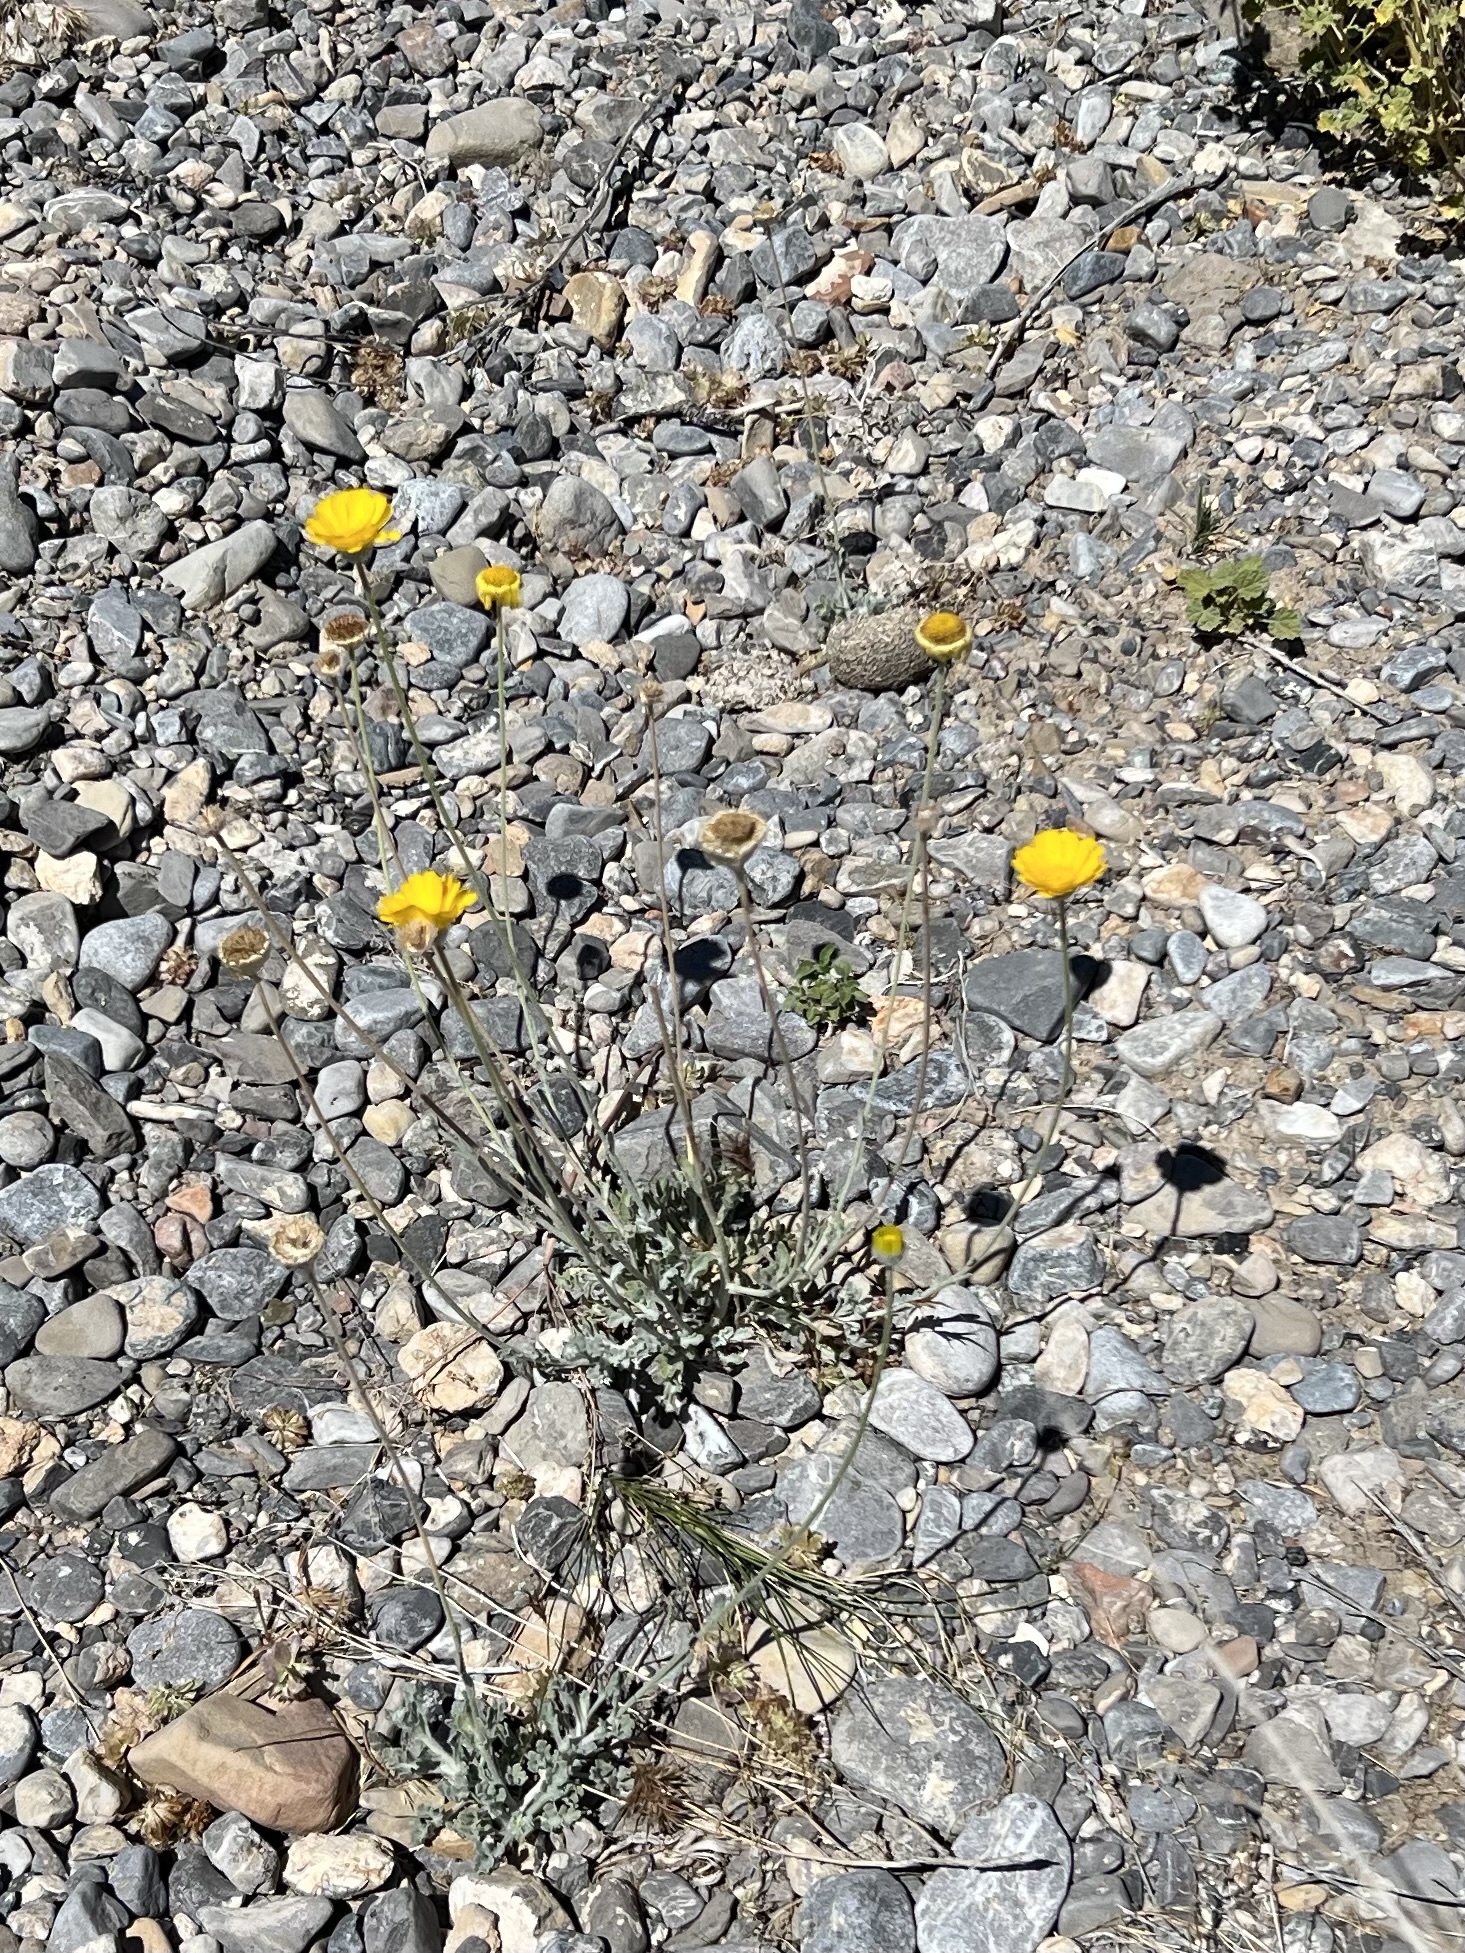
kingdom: Plantae
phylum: Tracheophyta
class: Magnoliopsida
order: Asterales
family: Asteraceae
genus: Baileya
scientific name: Baileya multiradiata
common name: Desert-marigold
